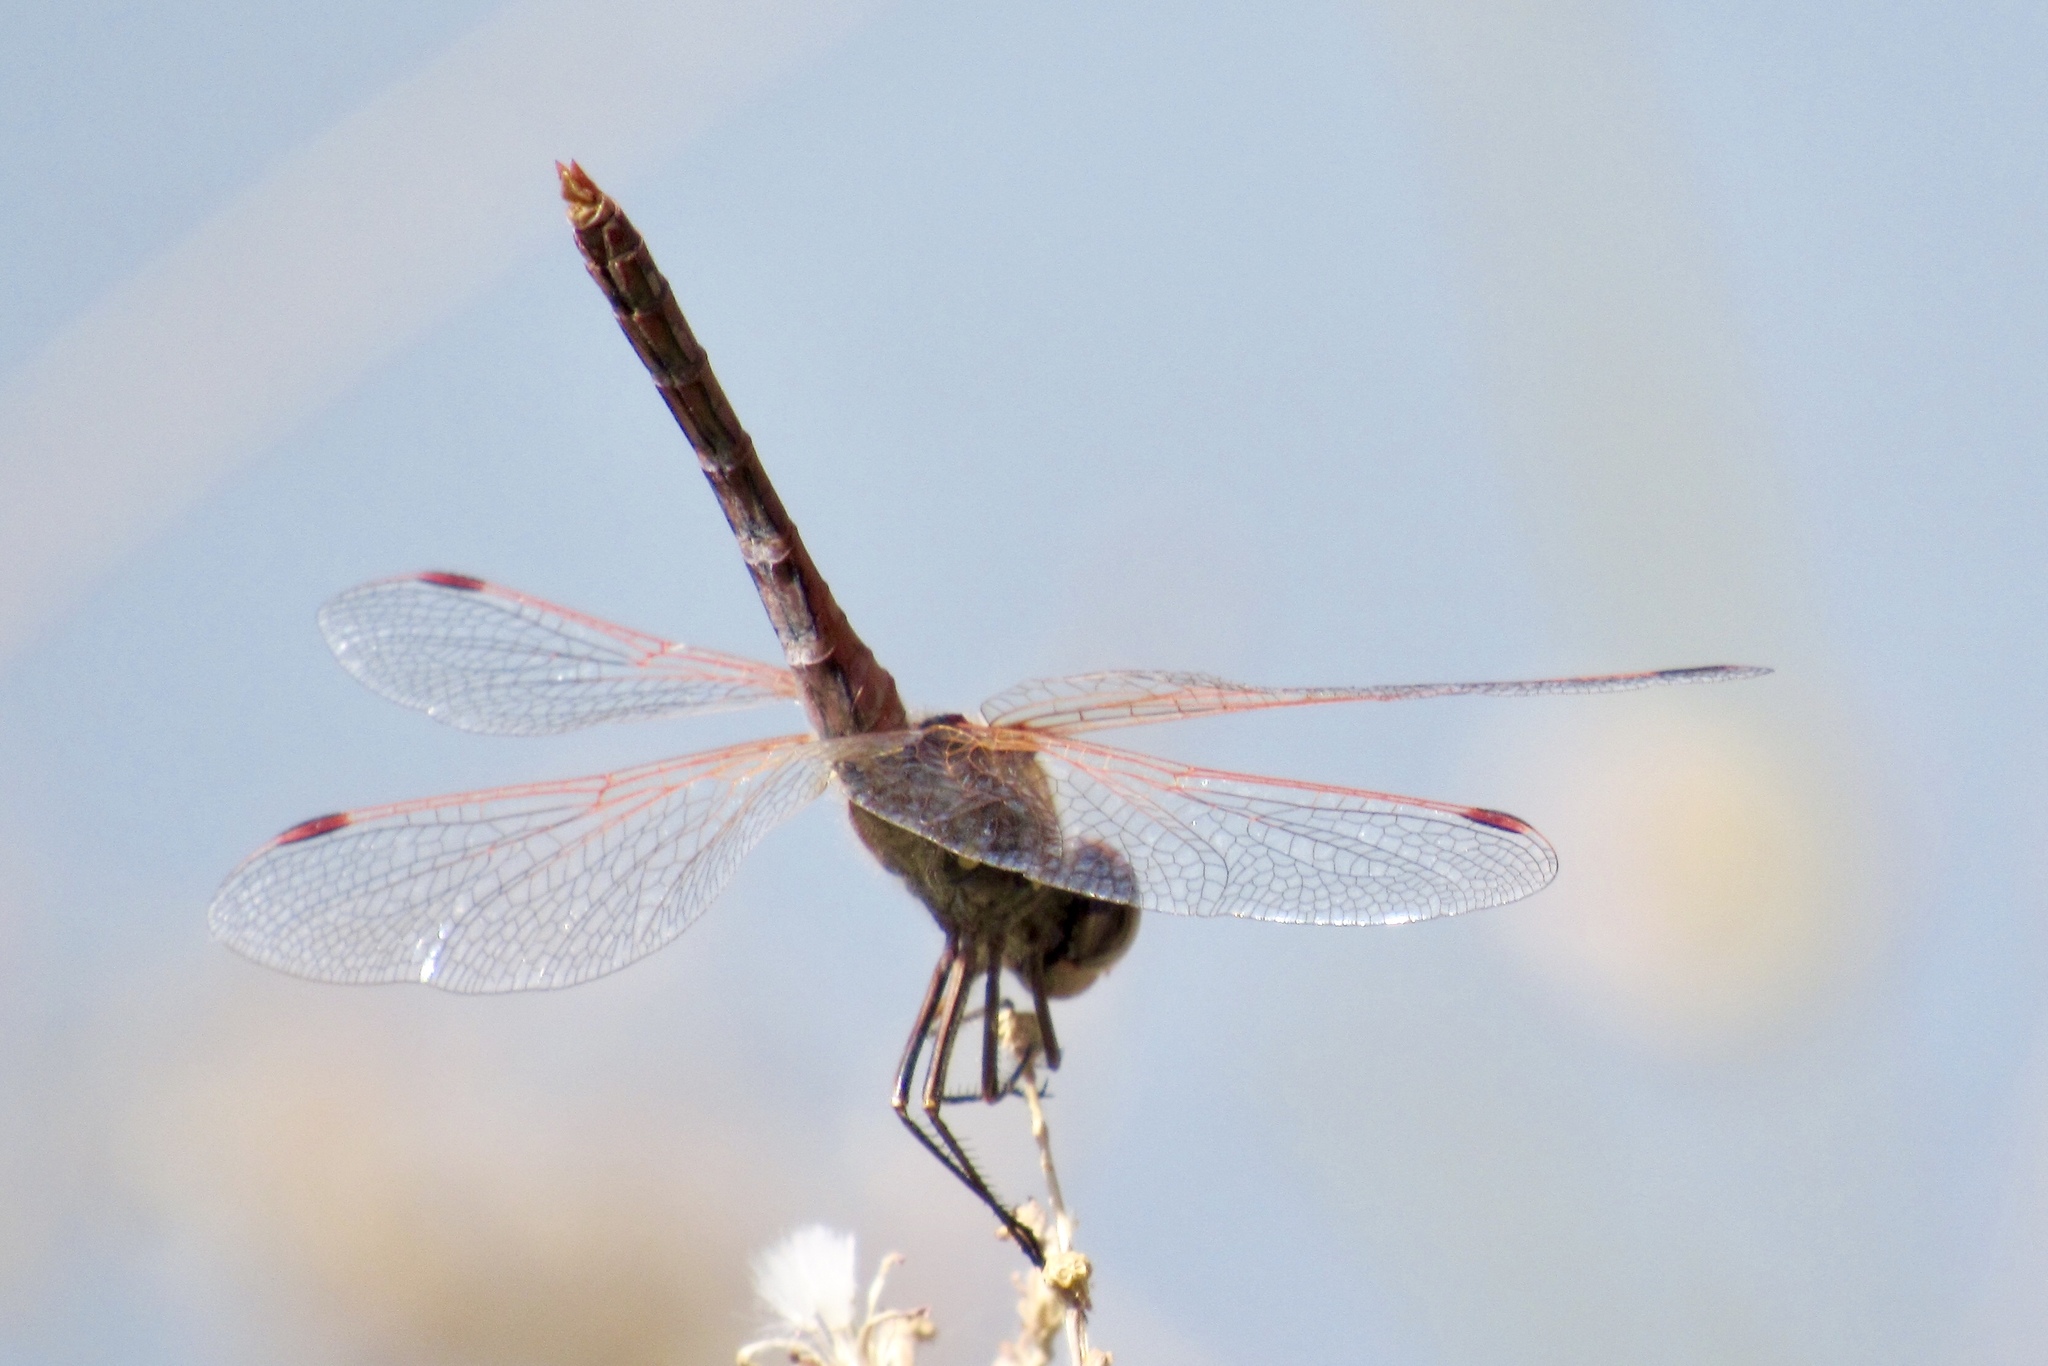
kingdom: Animalia
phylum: Arthropoda
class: Insecta
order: Odonata
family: Libellulidae
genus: Sympetrum
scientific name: Sympetrum corruptum
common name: Variegated meadowhawk
